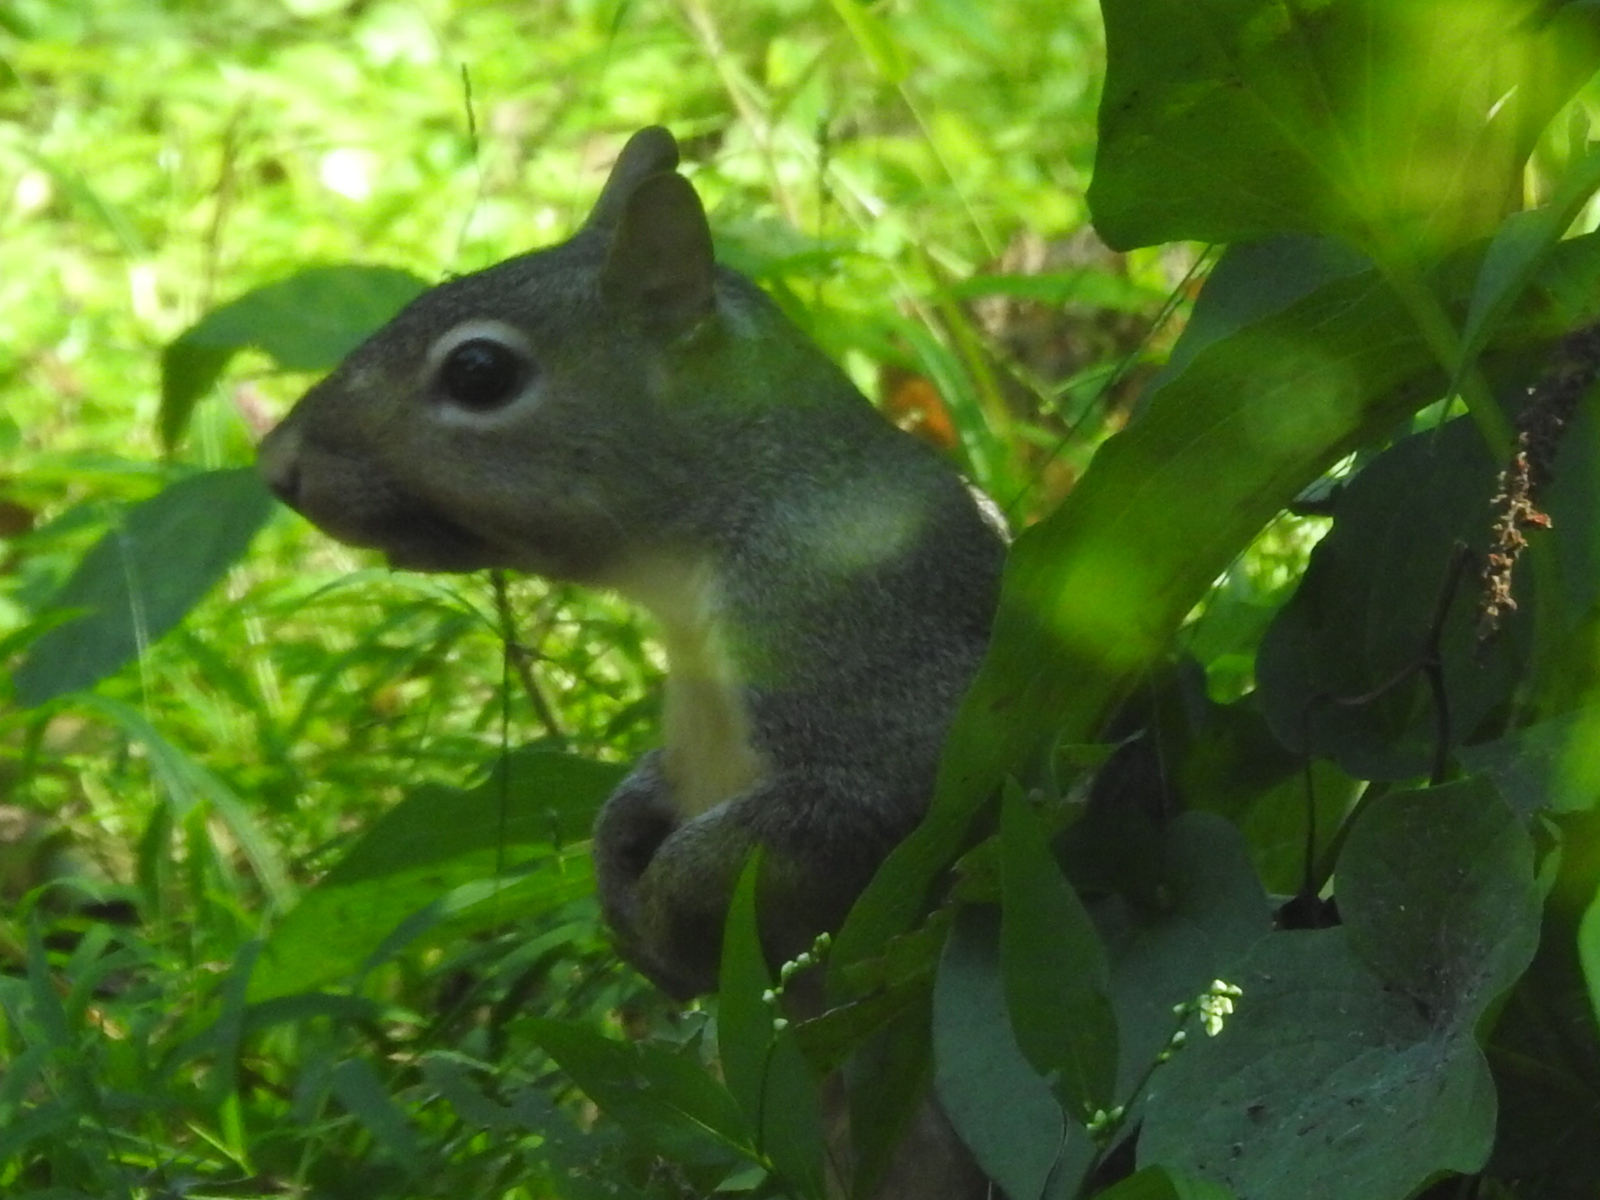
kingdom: Animalia
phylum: Chordata
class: Mammalia
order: Rodentia
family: Sciuridae
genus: Sciurus
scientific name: Sciurus carolinensis
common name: Eastern gray squirrel
